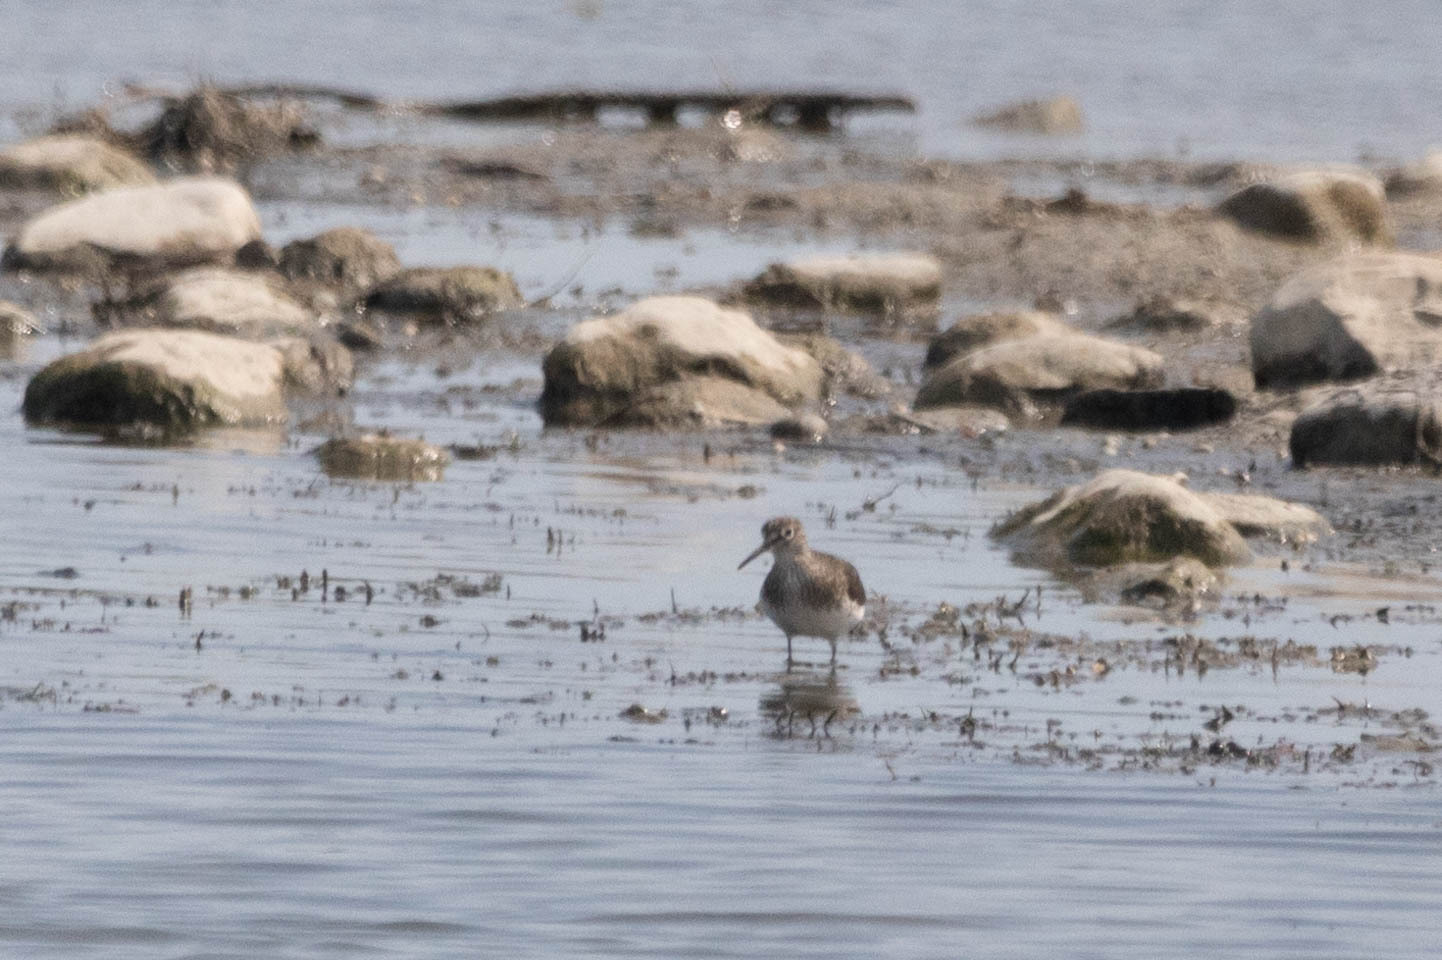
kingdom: Animalia
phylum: Chordata
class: Aves
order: Charadriiformes
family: Scolopacidae
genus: Tringa
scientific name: Tringa solitaria
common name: Solitary sandpiper
